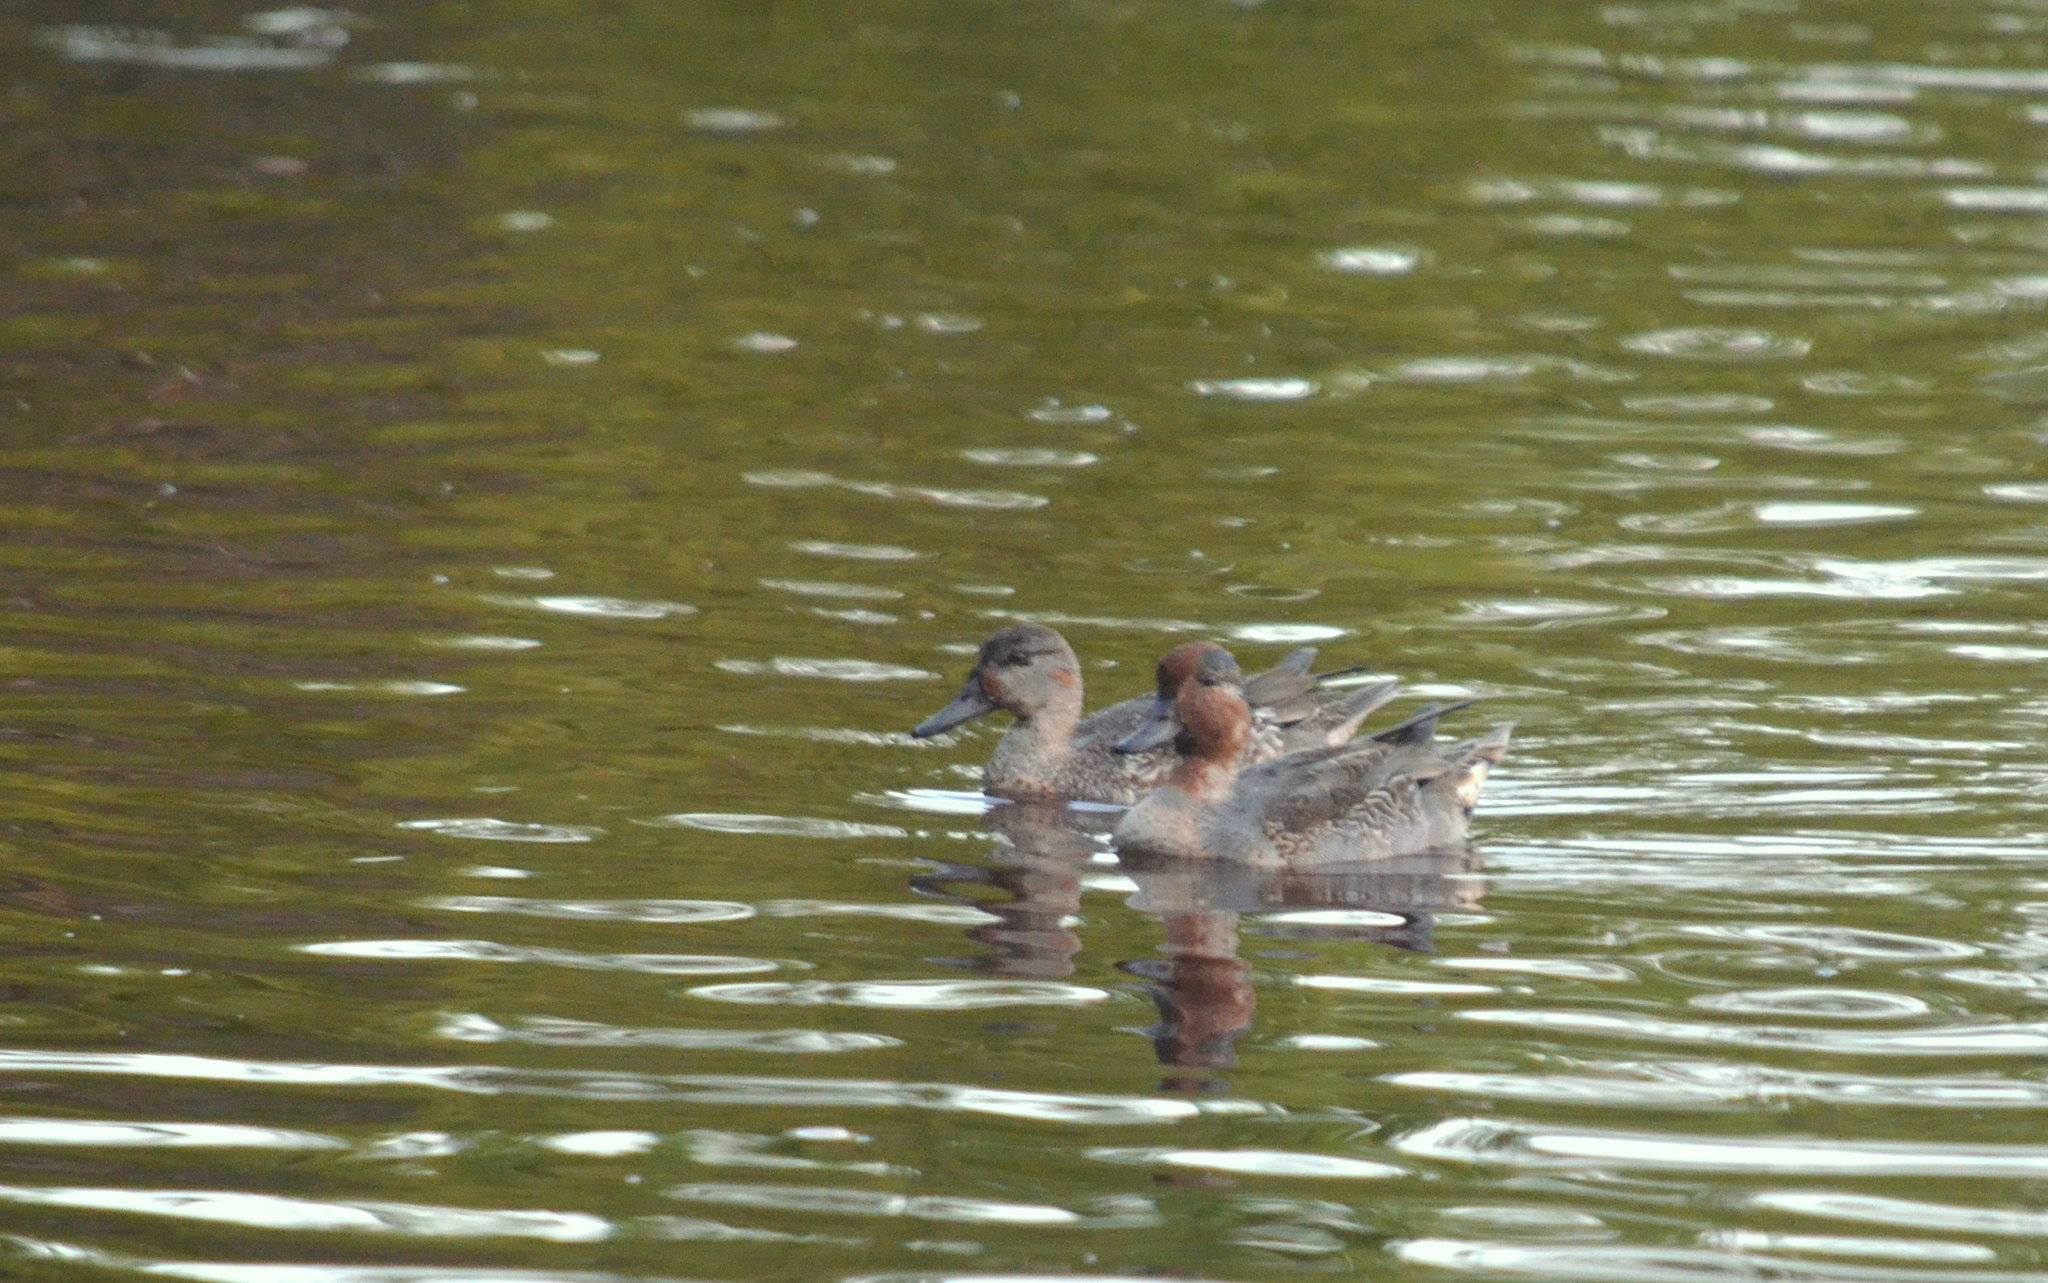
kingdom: Animalia
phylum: Chordata
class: Aves
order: Anseriformes
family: Anatidae
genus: Anas
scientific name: Anas crecca
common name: Eurasian teal
